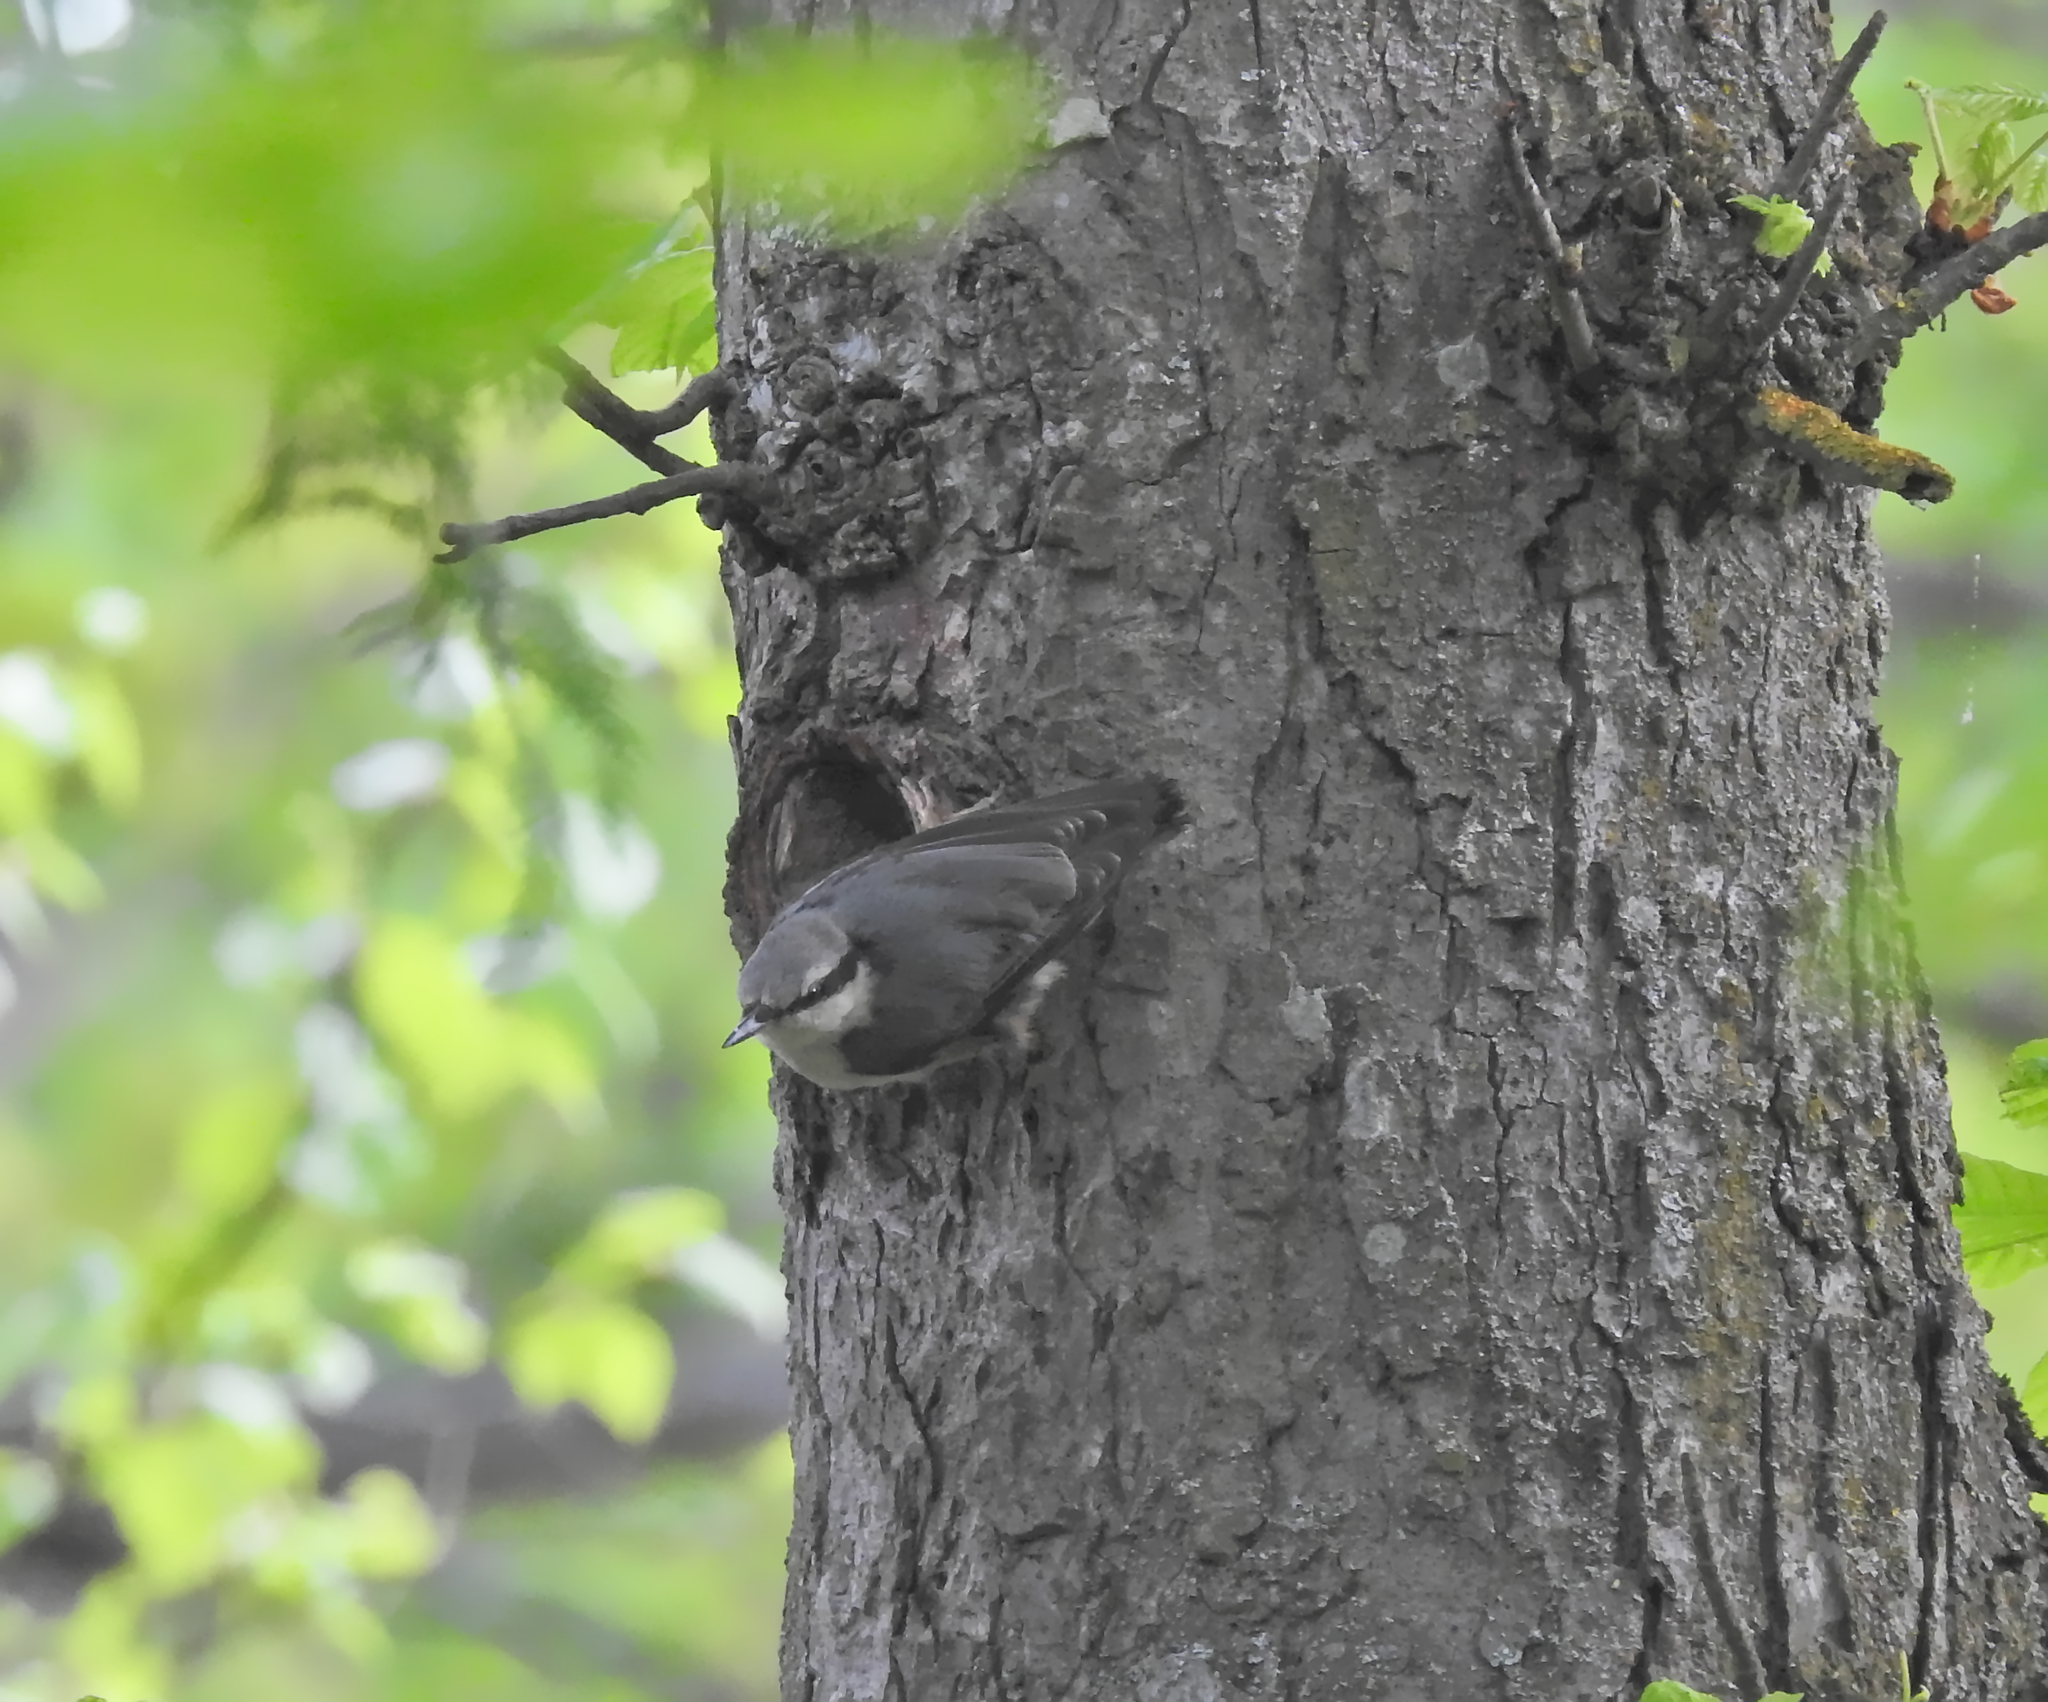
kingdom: Animalia
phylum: Chordata
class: Aves
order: Passeriformes
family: Sittidae
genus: Sitta
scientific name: Sitta europaea
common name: Eurasian nuthatch
